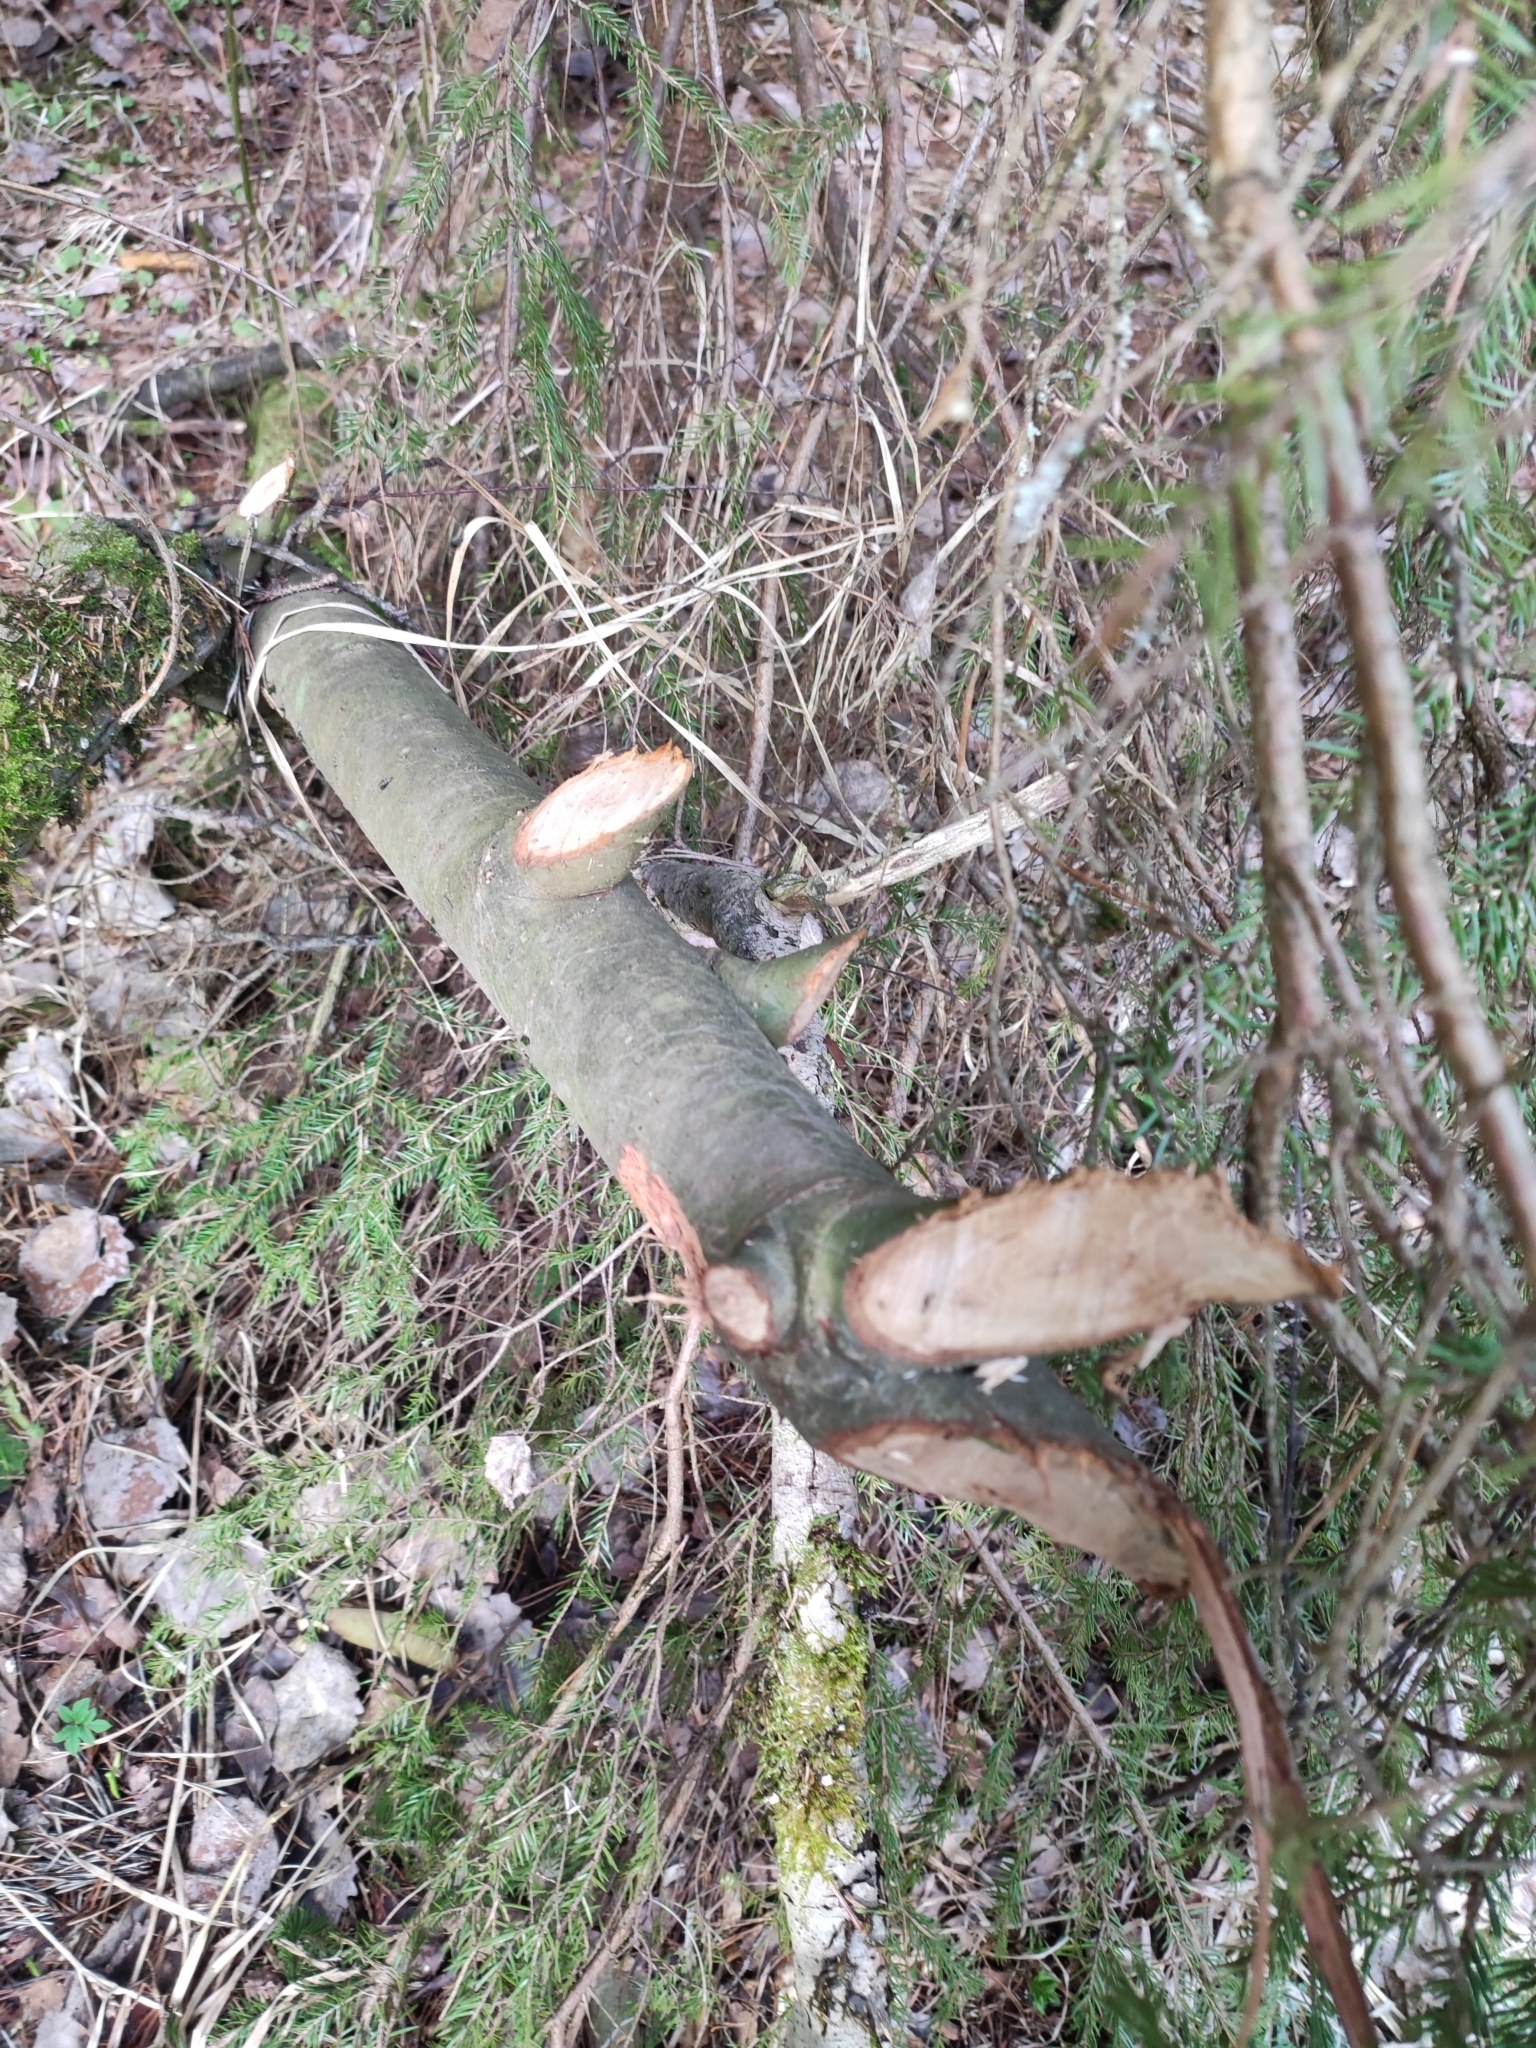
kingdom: Animalia
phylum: Chordata
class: Mammalia
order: Rodentia
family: Castoridae
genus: Castor
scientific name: Castor fiber
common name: Eurasian beaver
